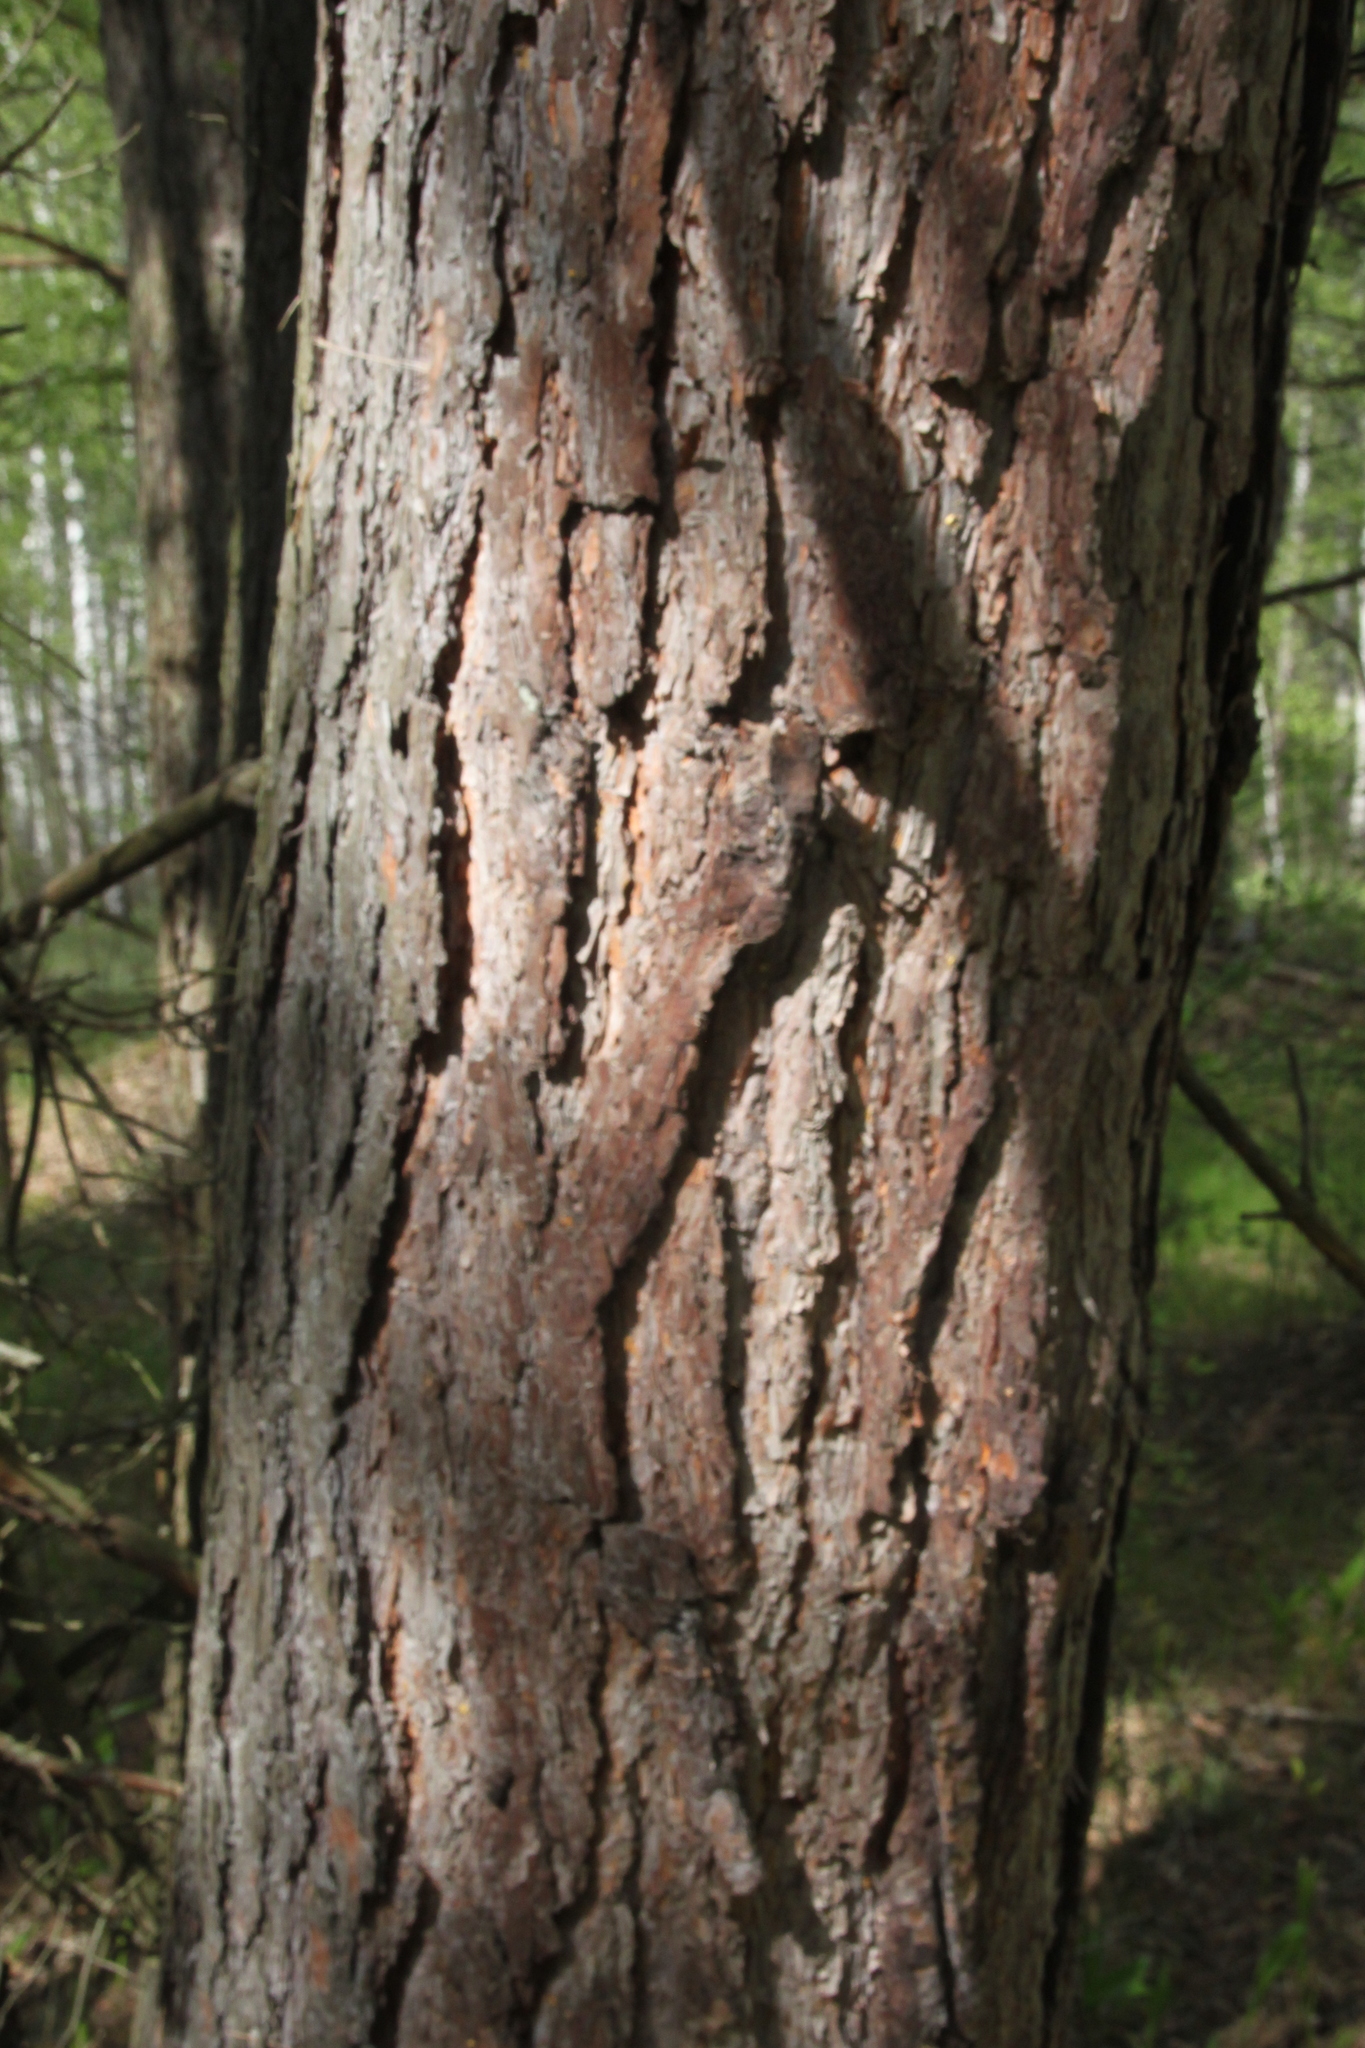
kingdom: Plantae
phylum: Tracheophyta
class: Pinopsida
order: Pinales
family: Pinaceae
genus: Pinus
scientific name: Pinus sylvestris
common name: Scots pine
